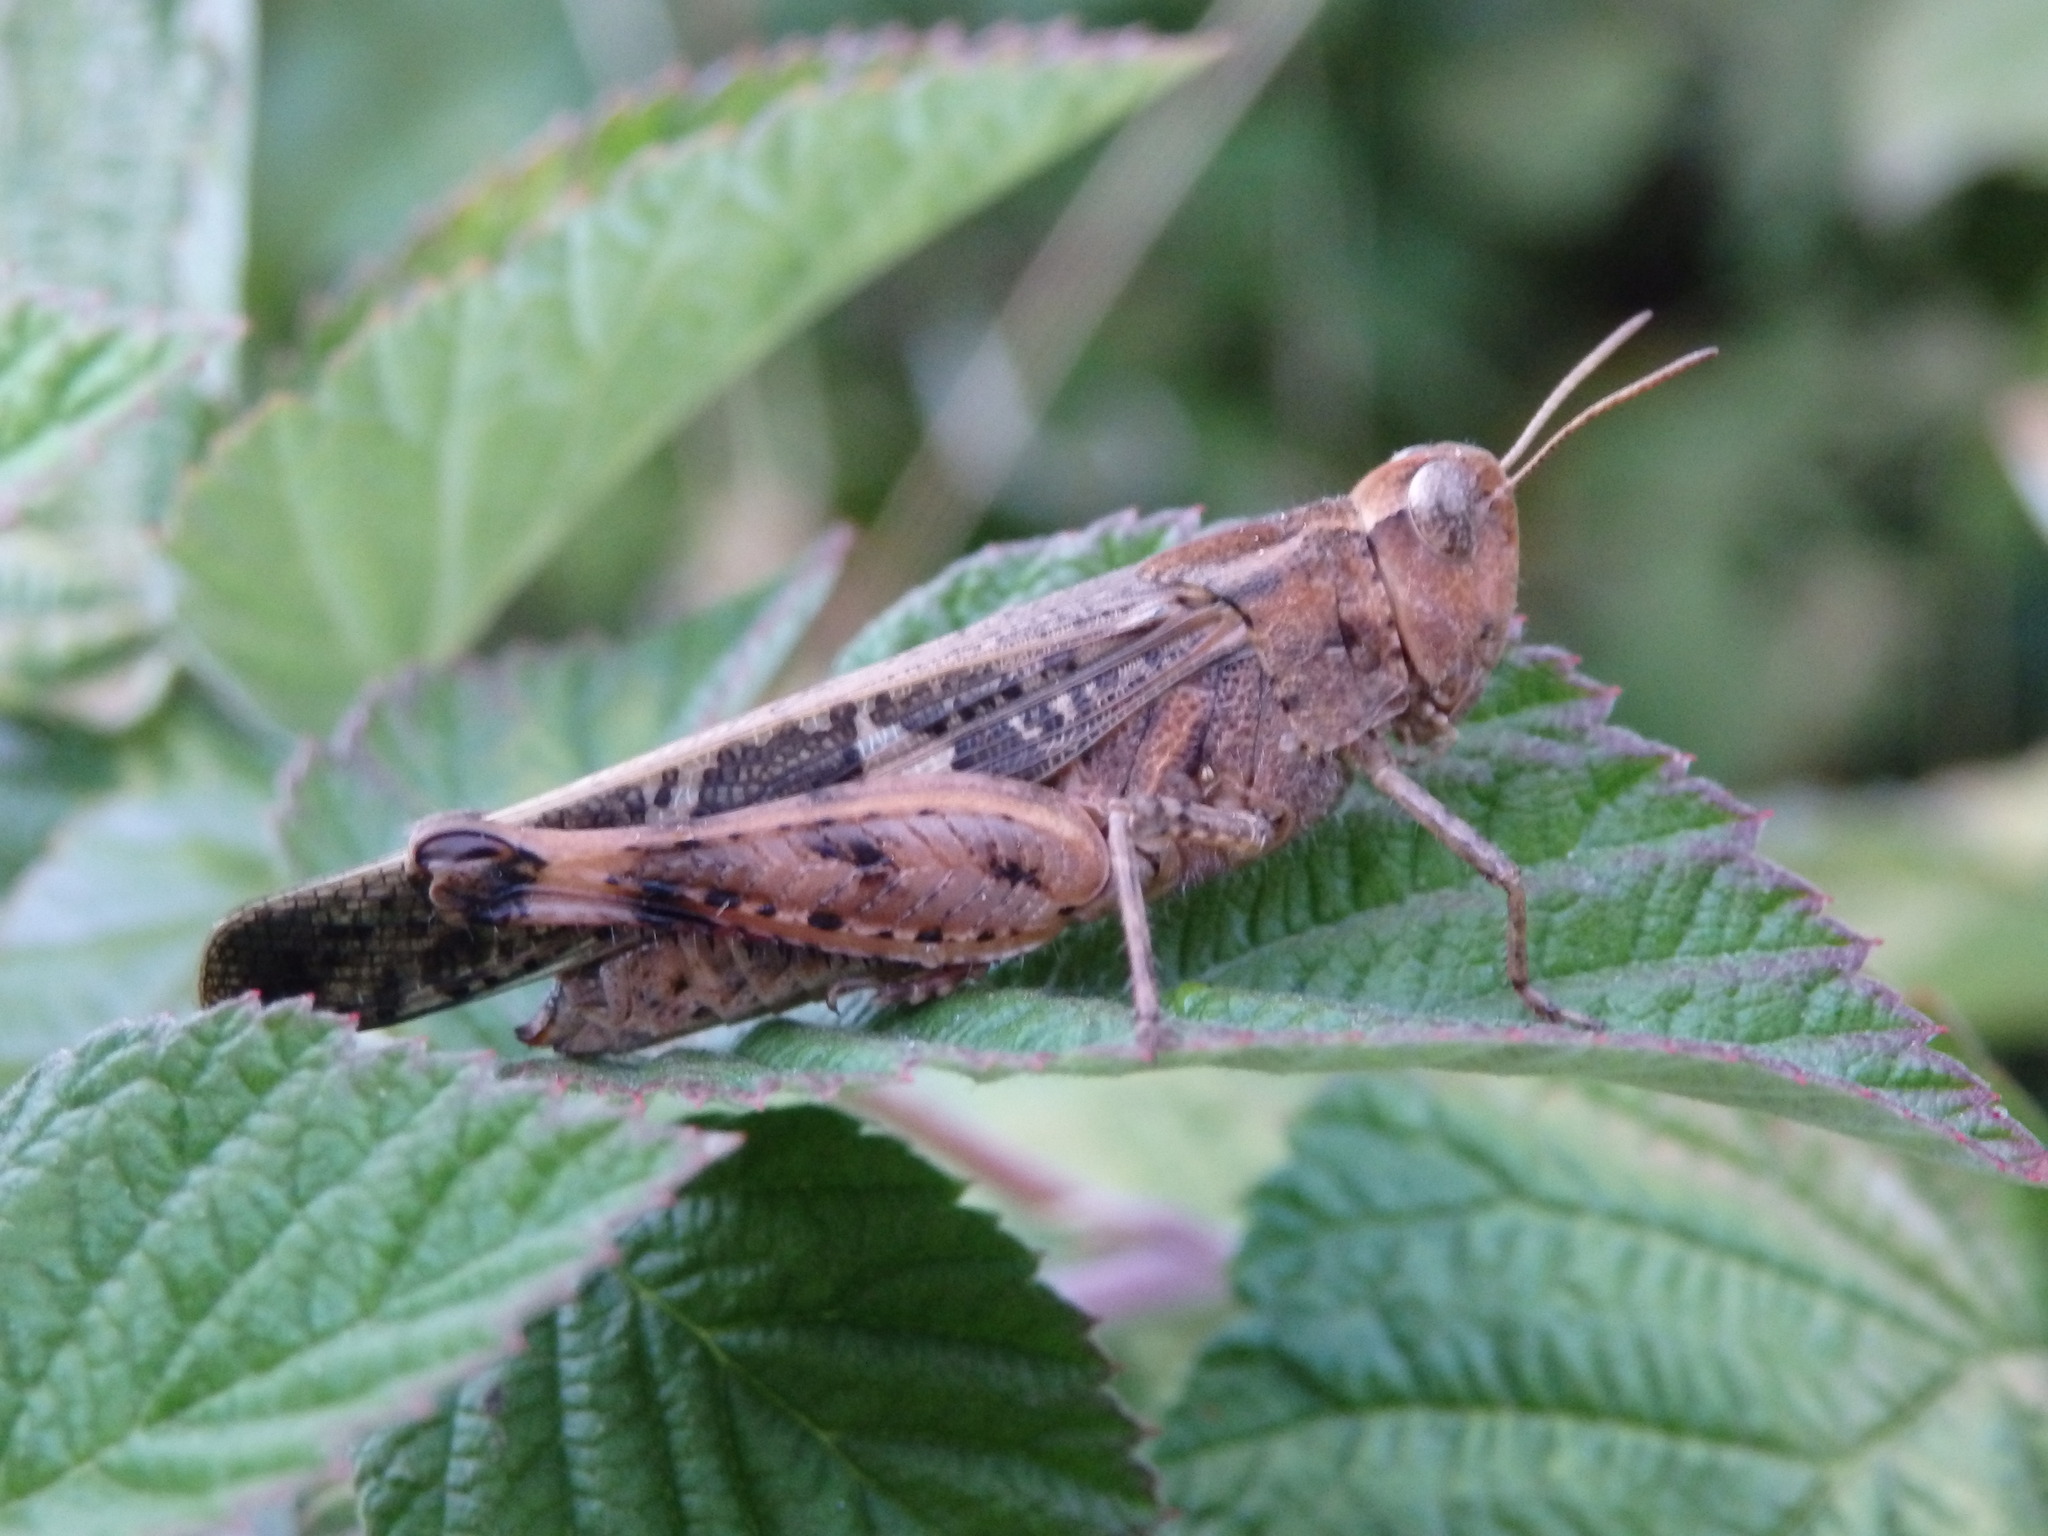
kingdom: Animalia
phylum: Arthropoda
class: Insecta
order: Orthoptera
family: Acrididae
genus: Aiolopus
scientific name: Aiolopus strepens
